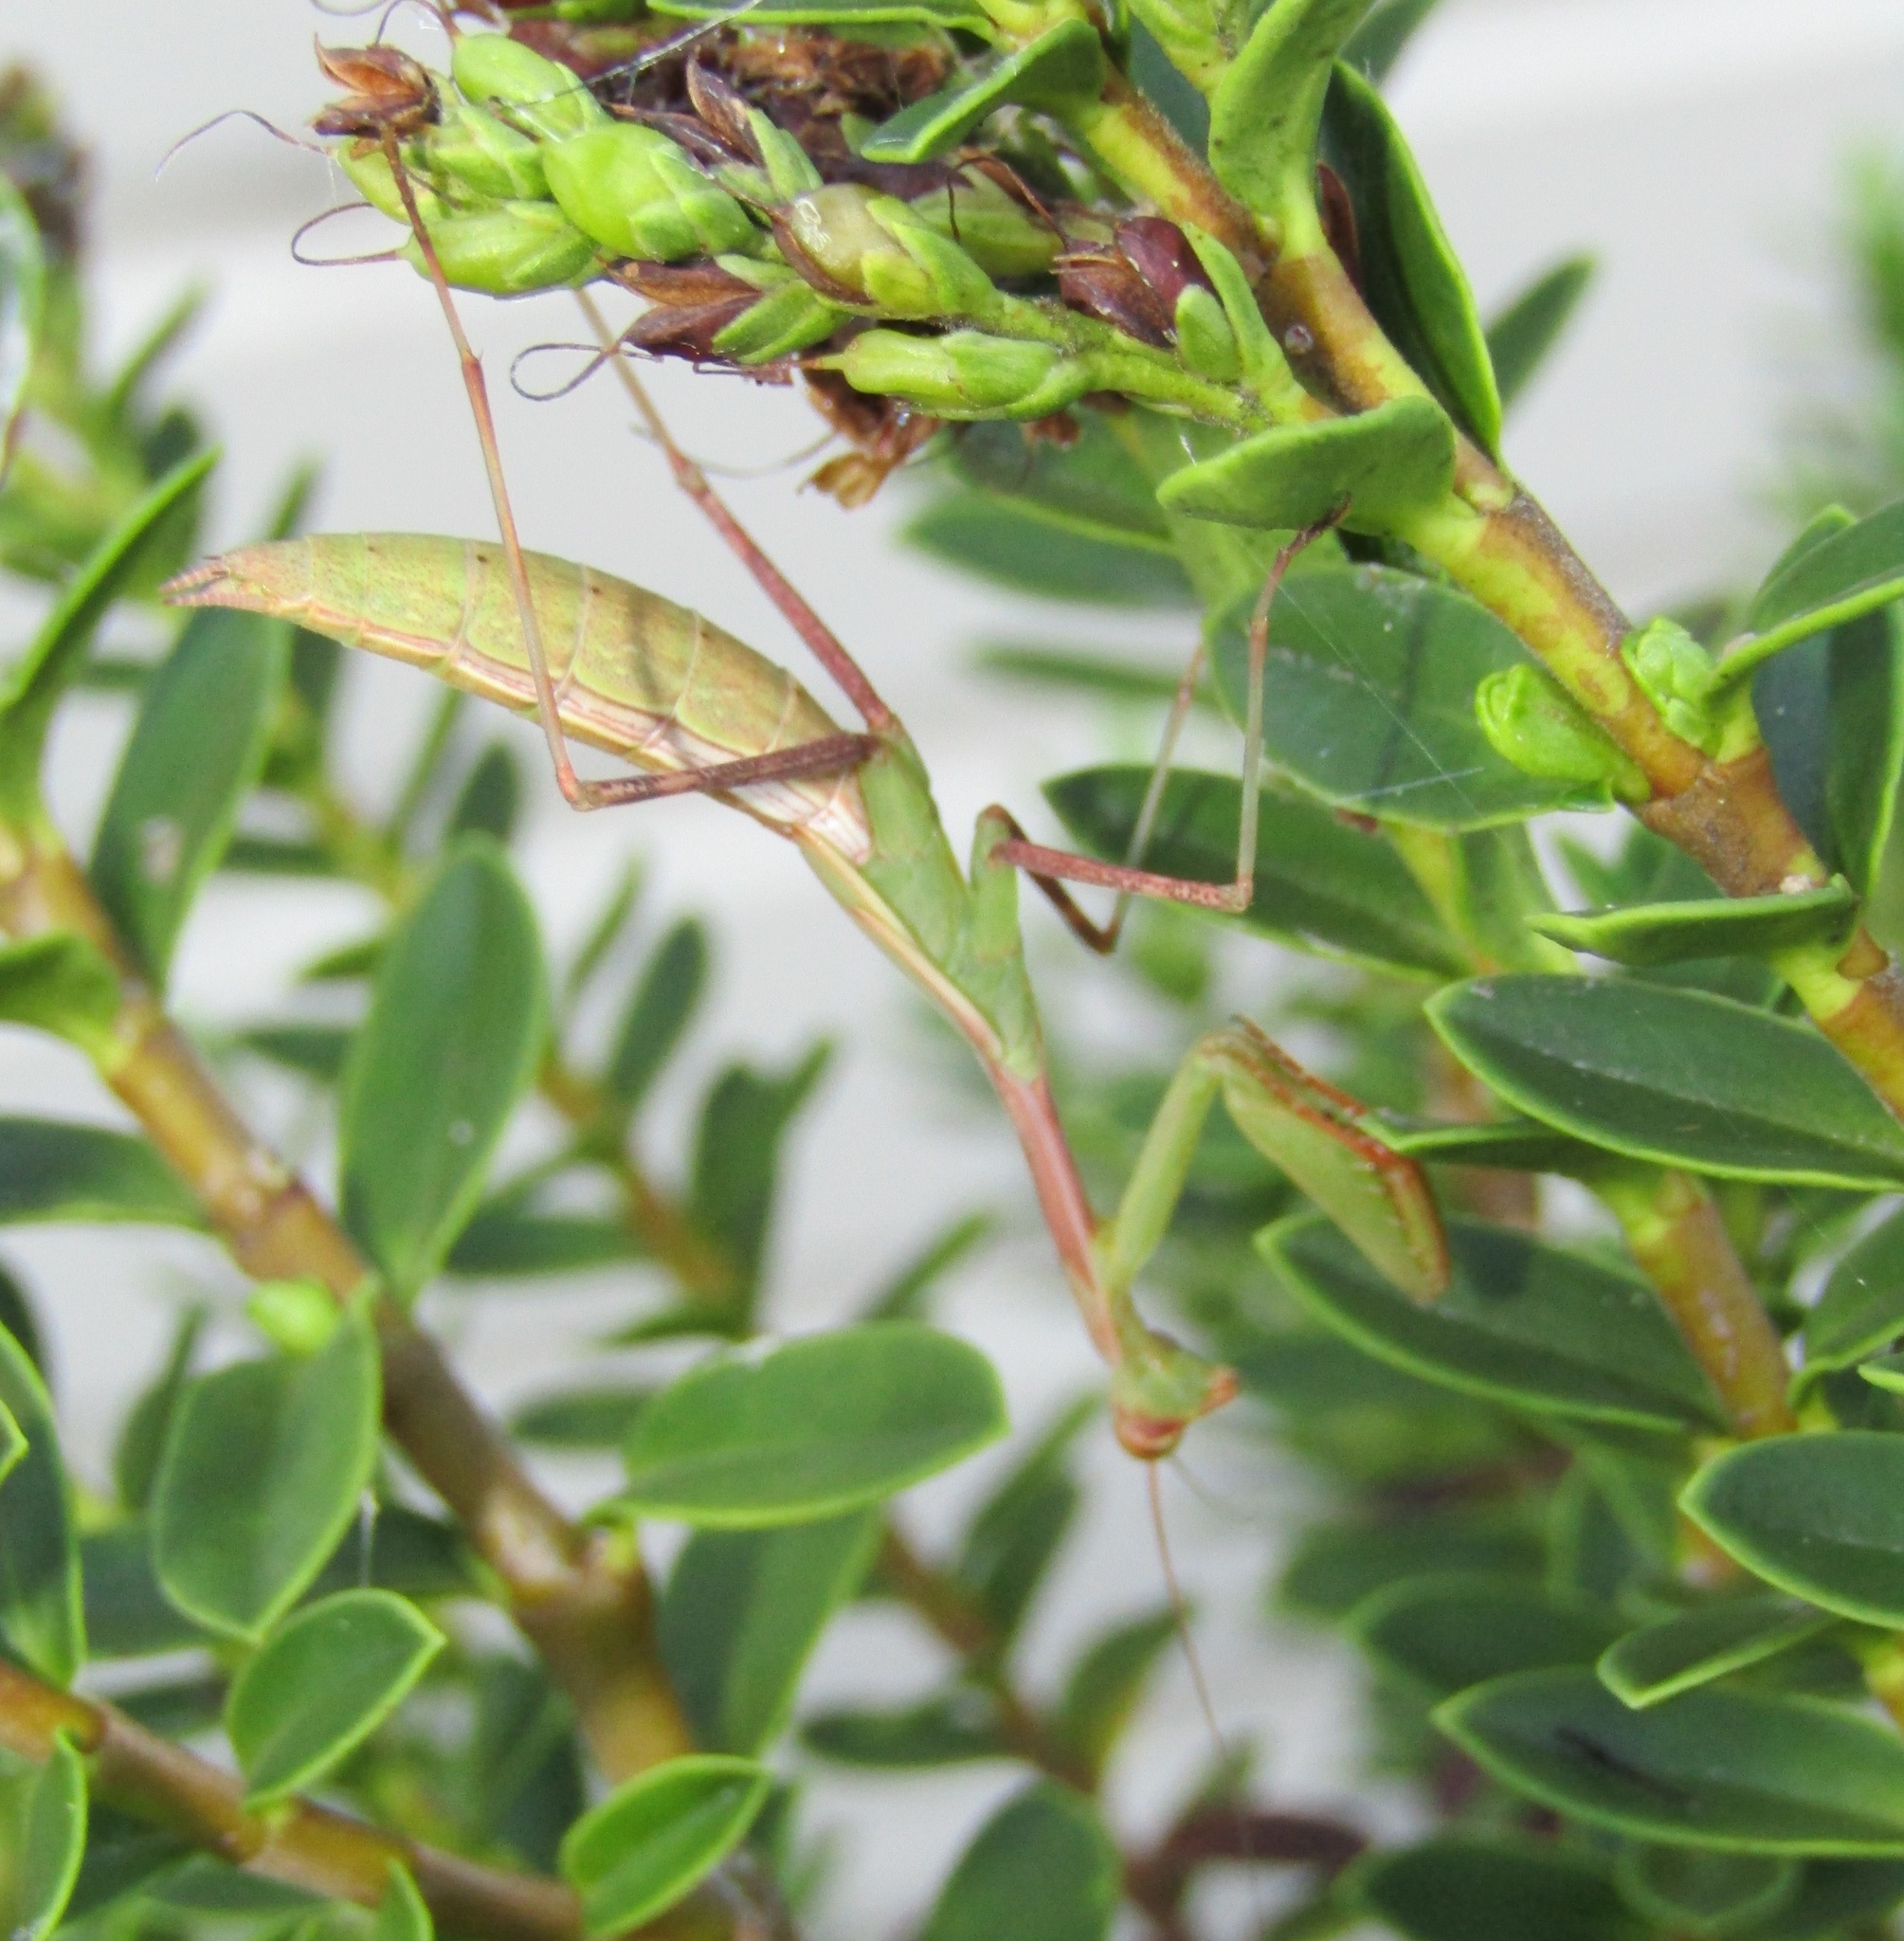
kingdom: Animalia
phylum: Arthropoda
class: Insecta
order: Mantodea
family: Miomantidae
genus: Miomantis
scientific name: Miomantis caffra
